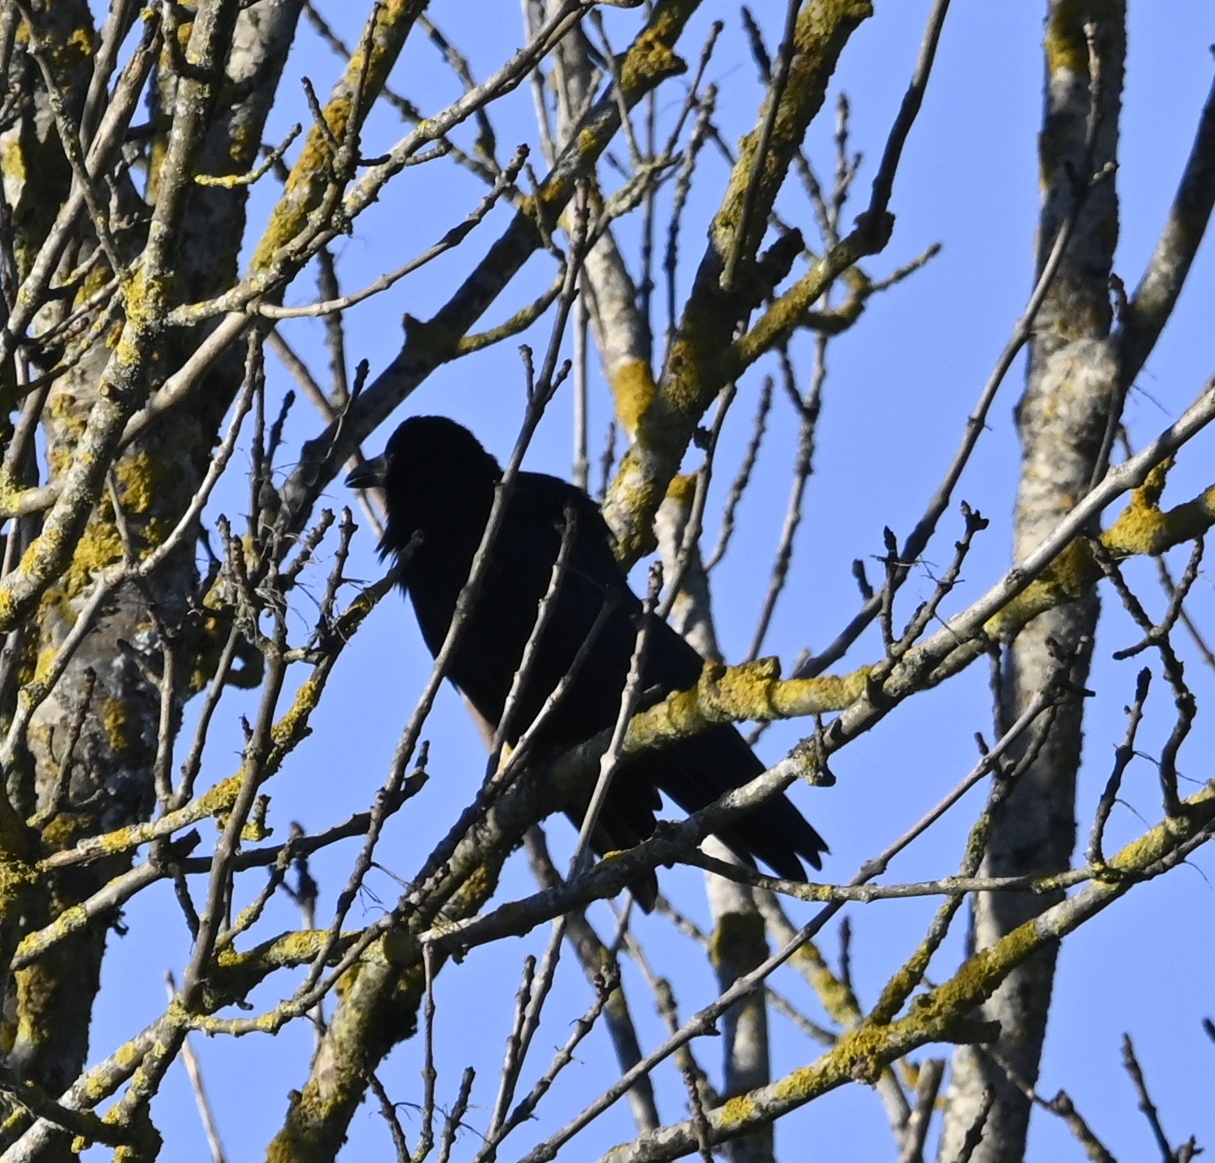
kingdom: Animalia
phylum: Chordata
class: Aves
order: Passeriformes
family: Corvidae
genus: Corvus
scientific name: Corvus corone
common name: Carrion crow
